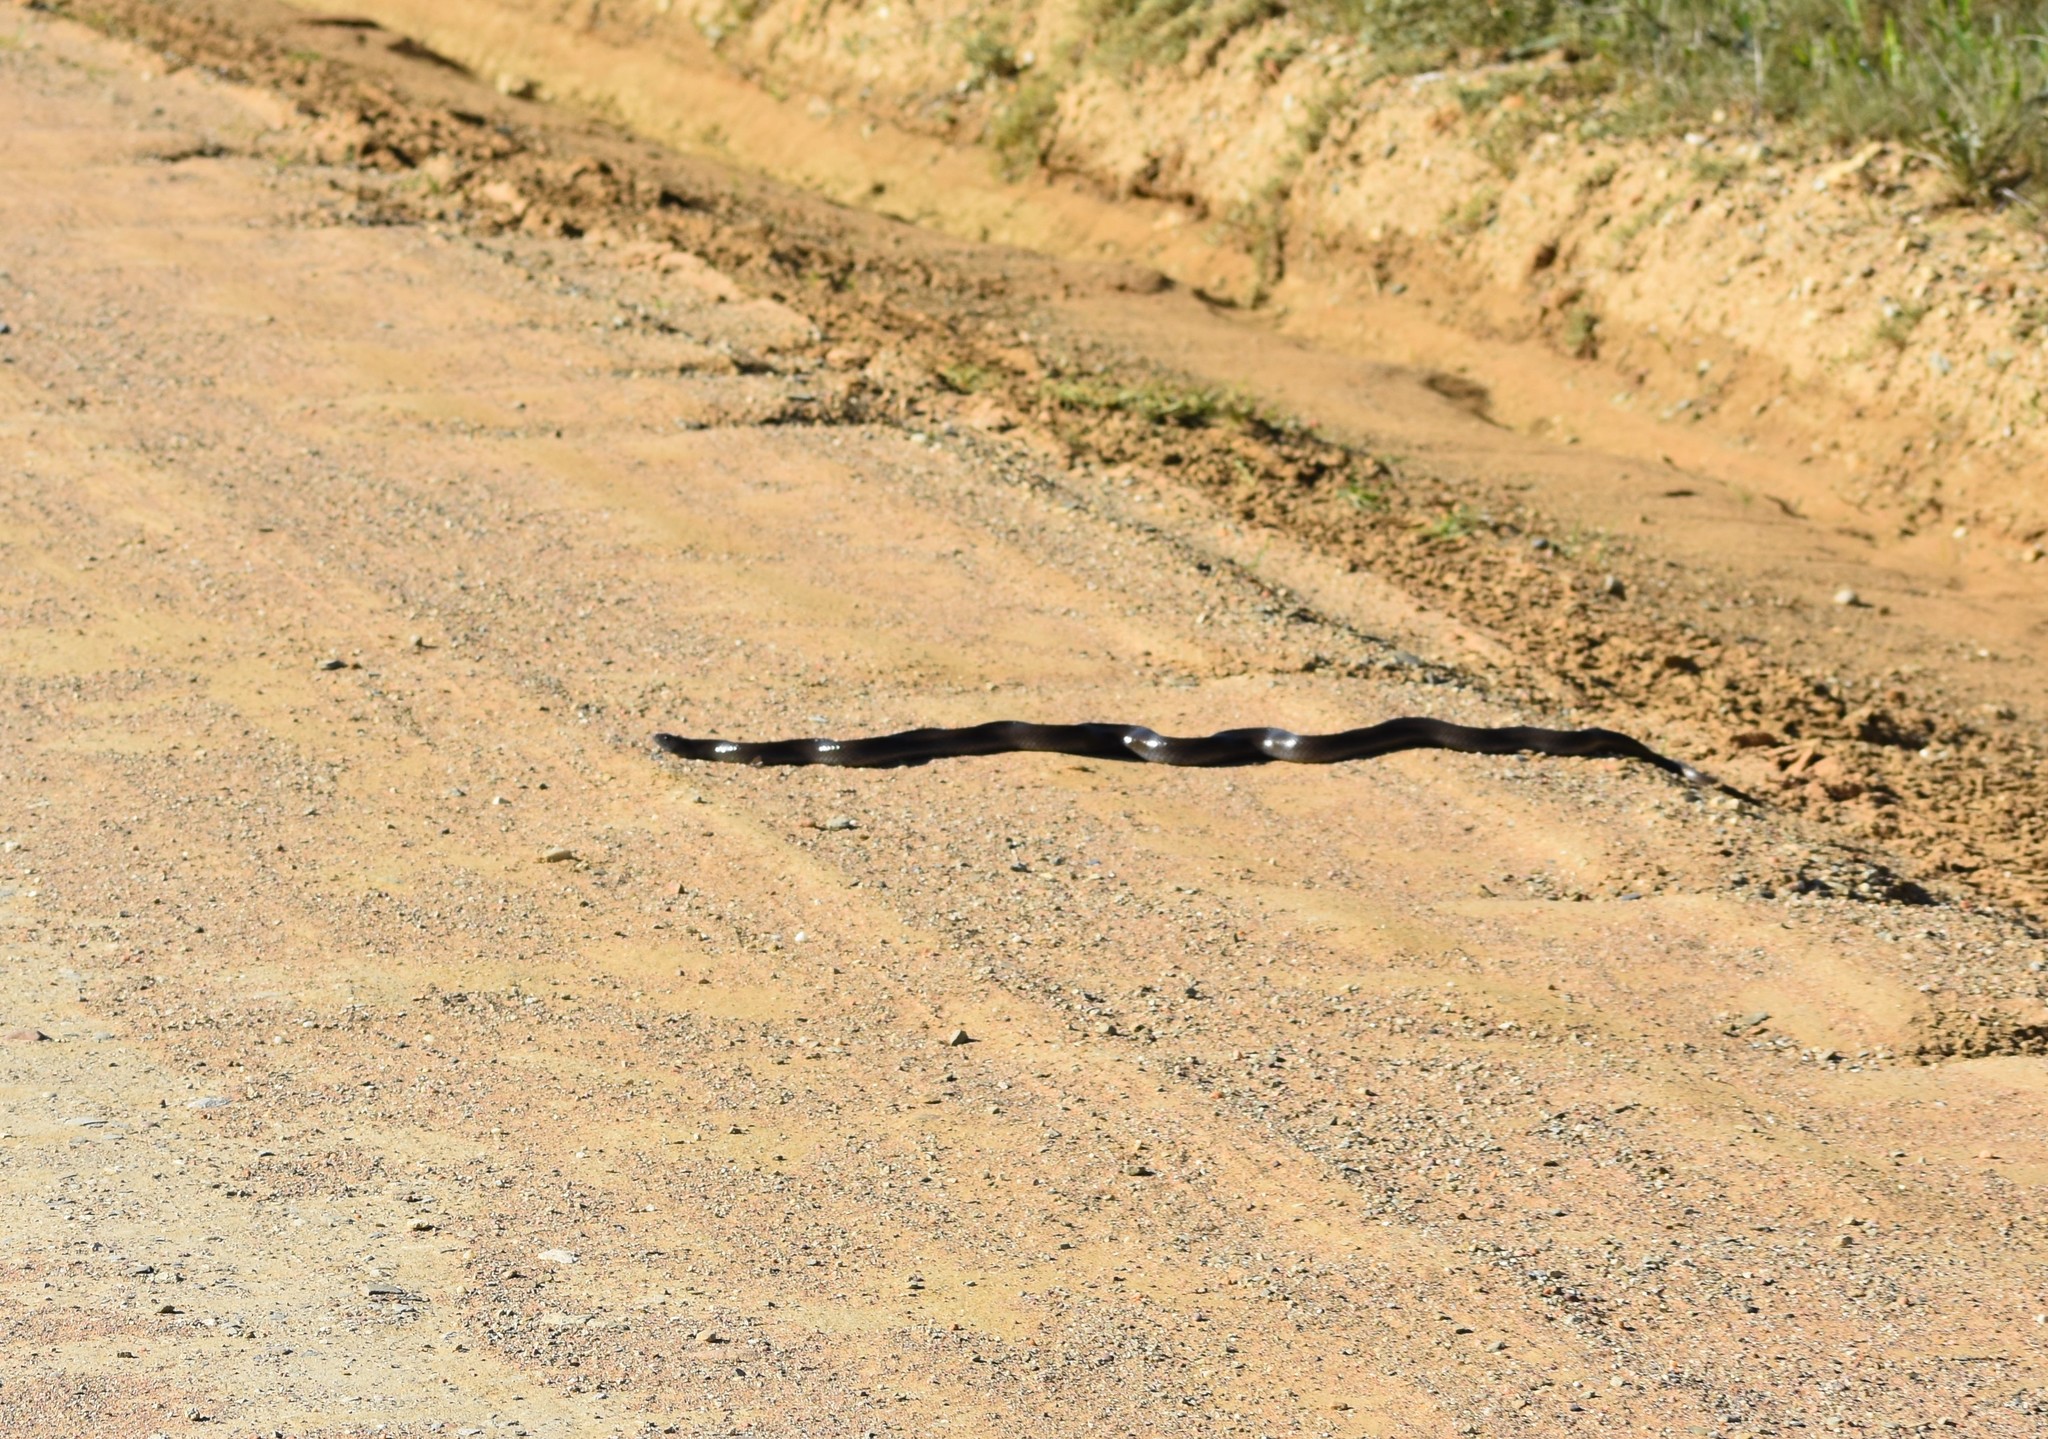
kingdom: Animalia
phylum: Chordata
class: Squamata
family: Pseudaspididae
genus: Pseudaspis
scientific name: Pseudaspis cana
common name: Mole snake
